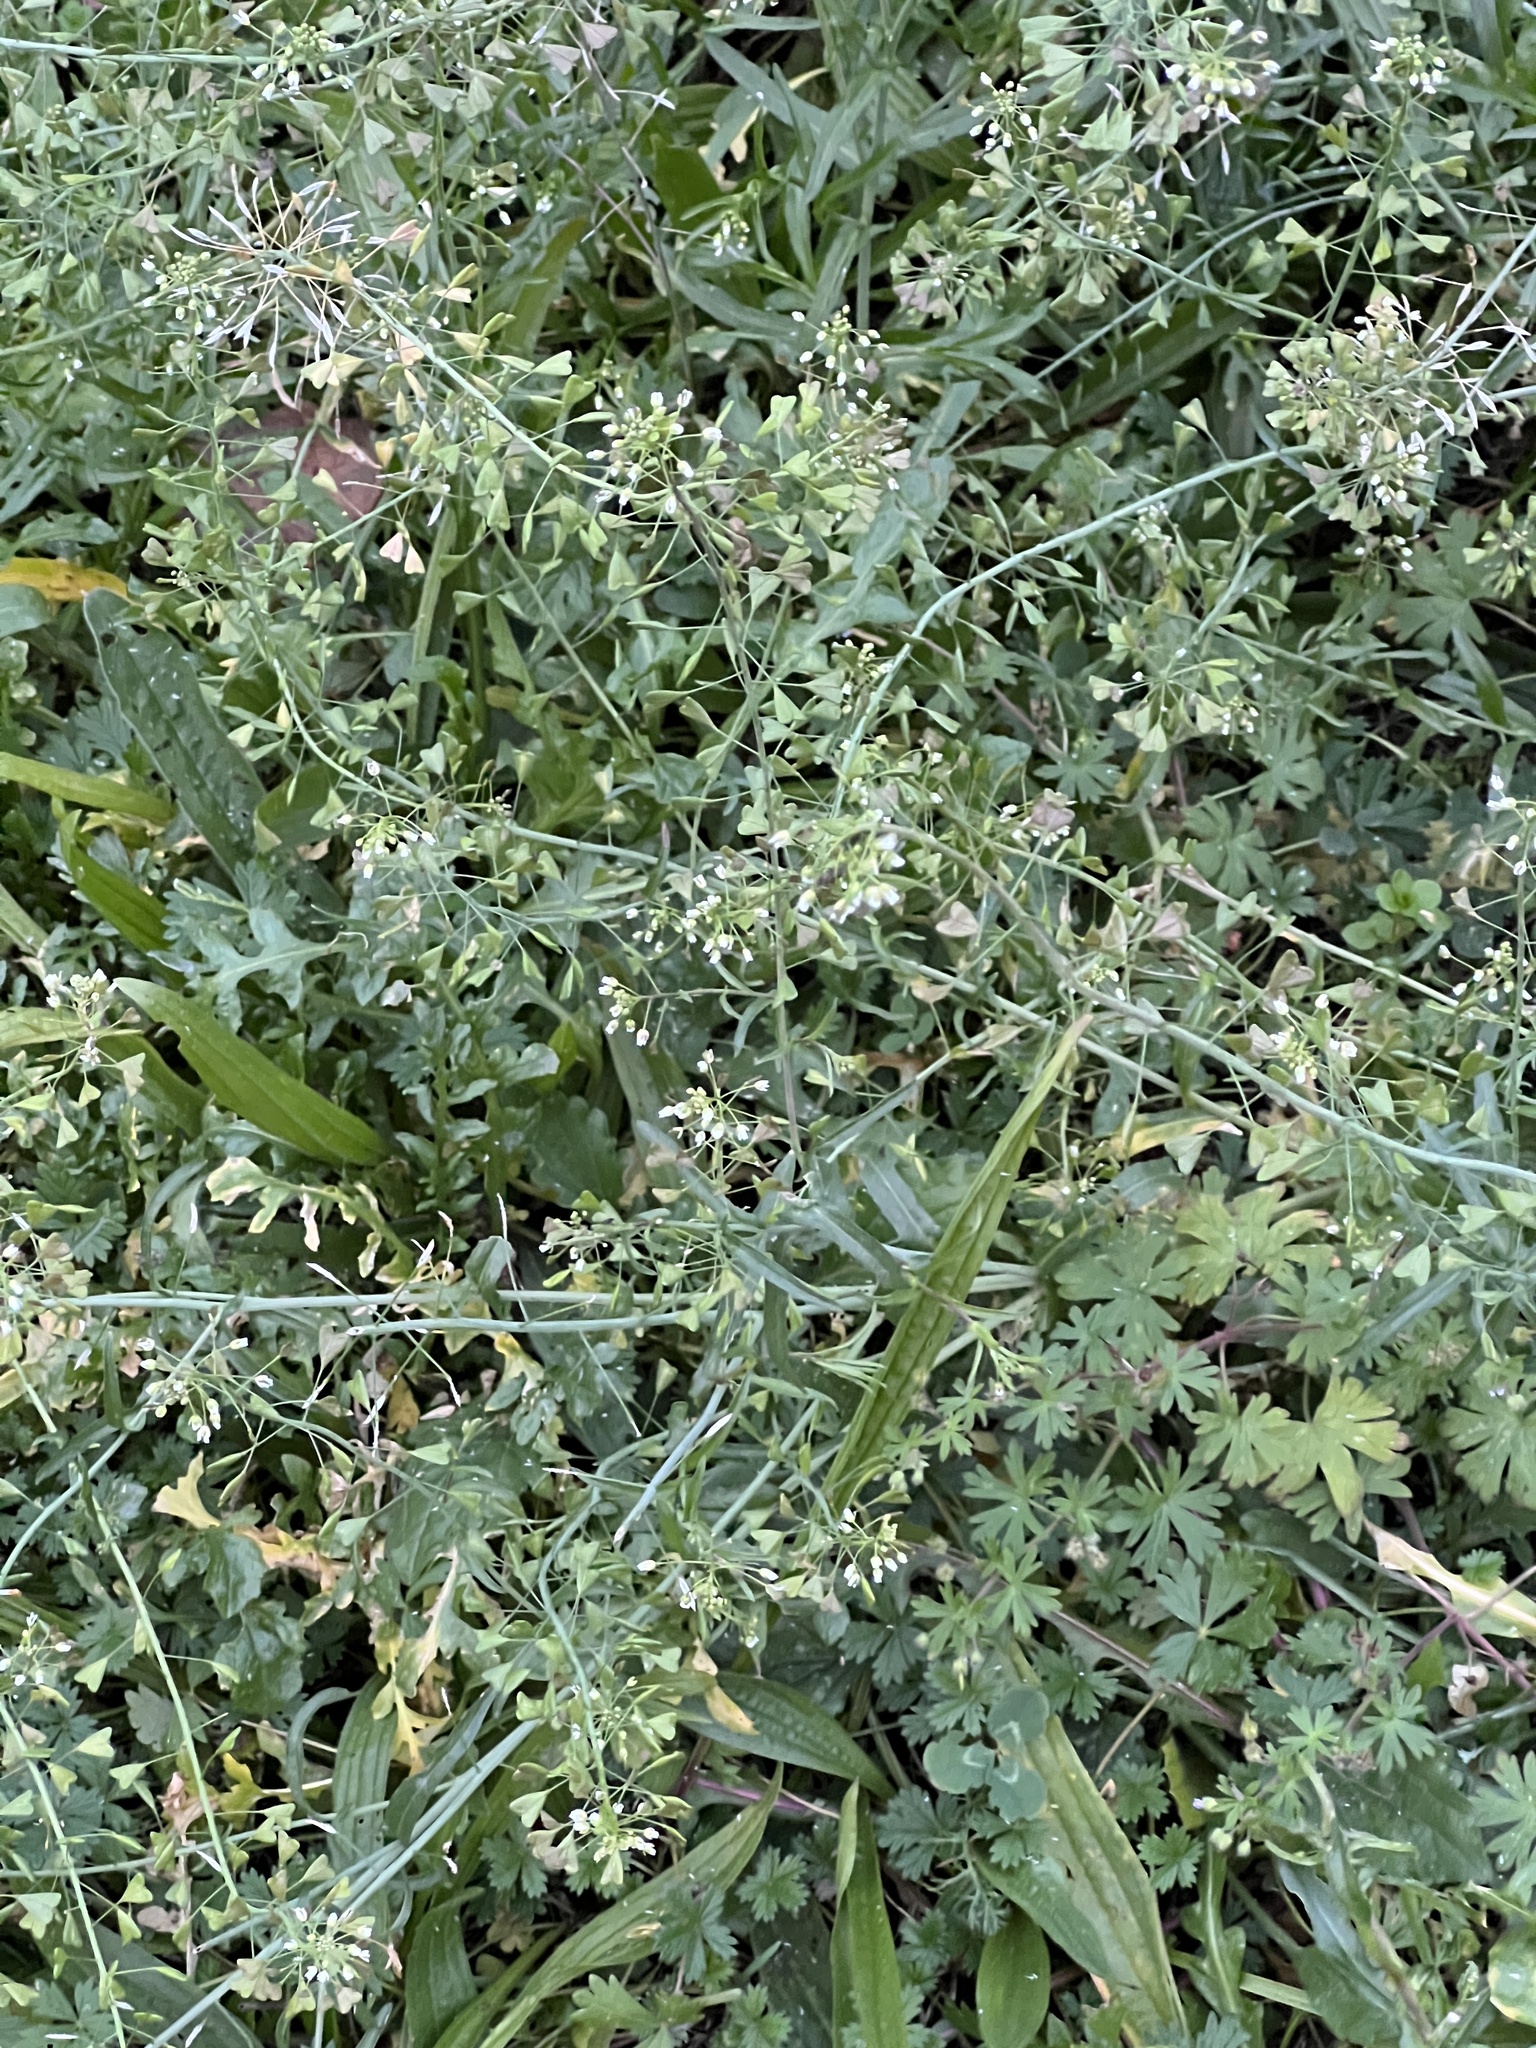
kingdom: Plantae
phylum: Tracheophyta
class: Magnoliopsida
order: Brassicales
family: Brassicaceae
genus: Capsella
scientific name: Capsella bursa-pastoris
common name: Shepherd's purse
